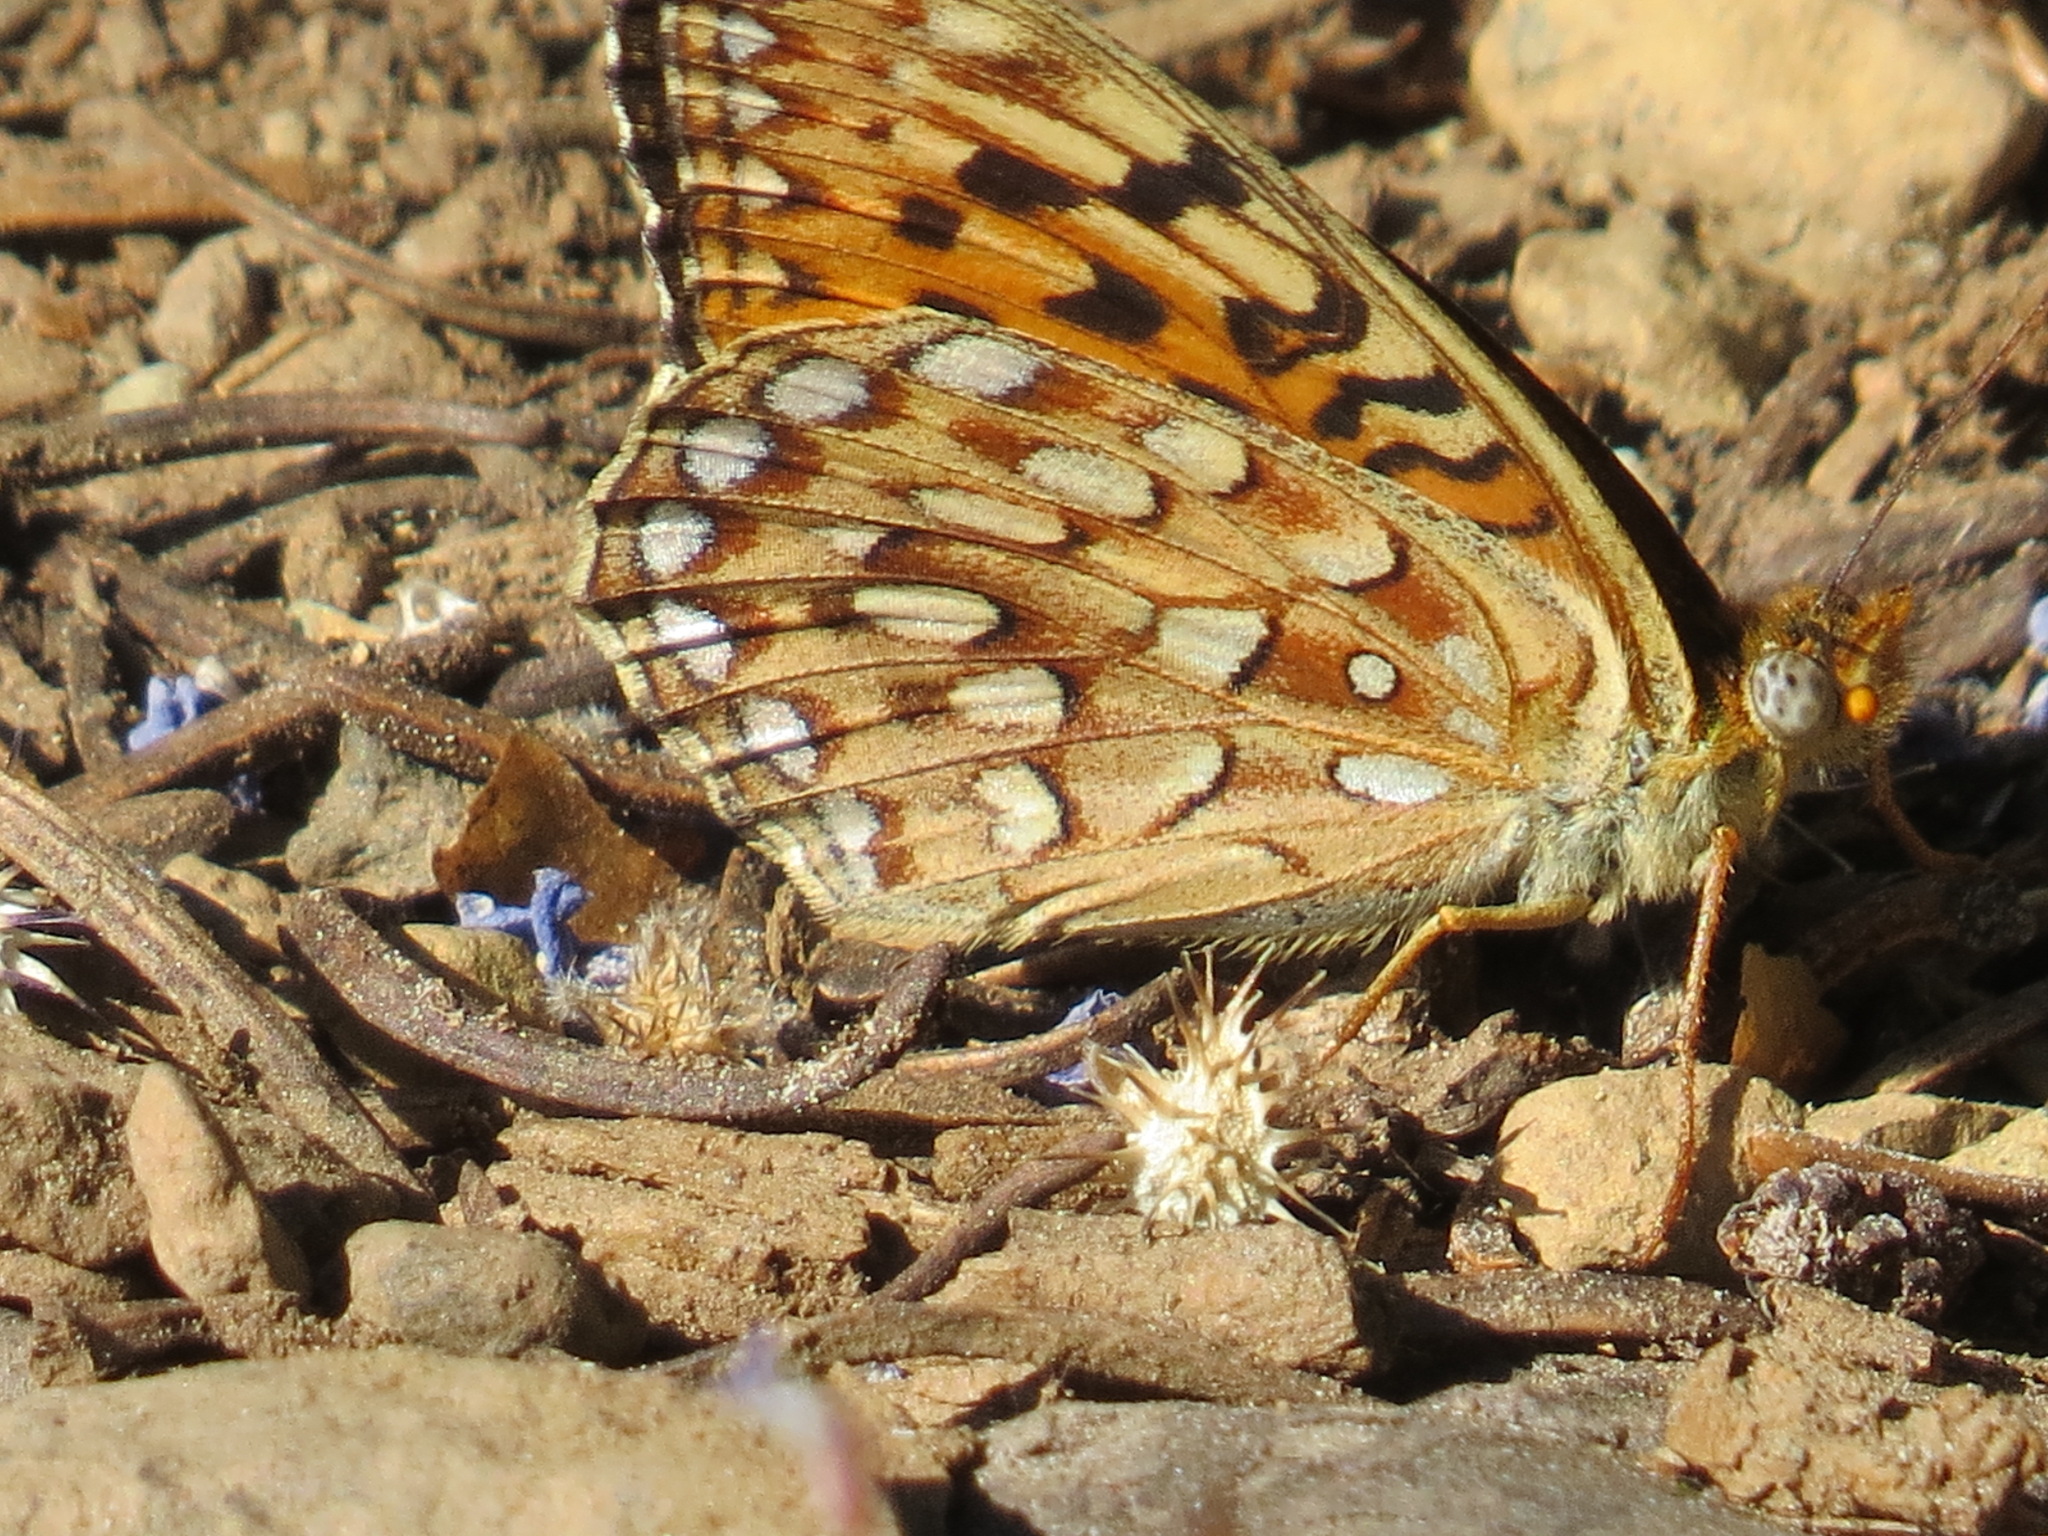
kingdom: Animalia
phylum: Arthropoda
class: Insecta
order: Lepidoptera
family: Nymphalidae
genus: Speyeria
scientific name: Speyeria egleis
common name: Great basin fritillary
